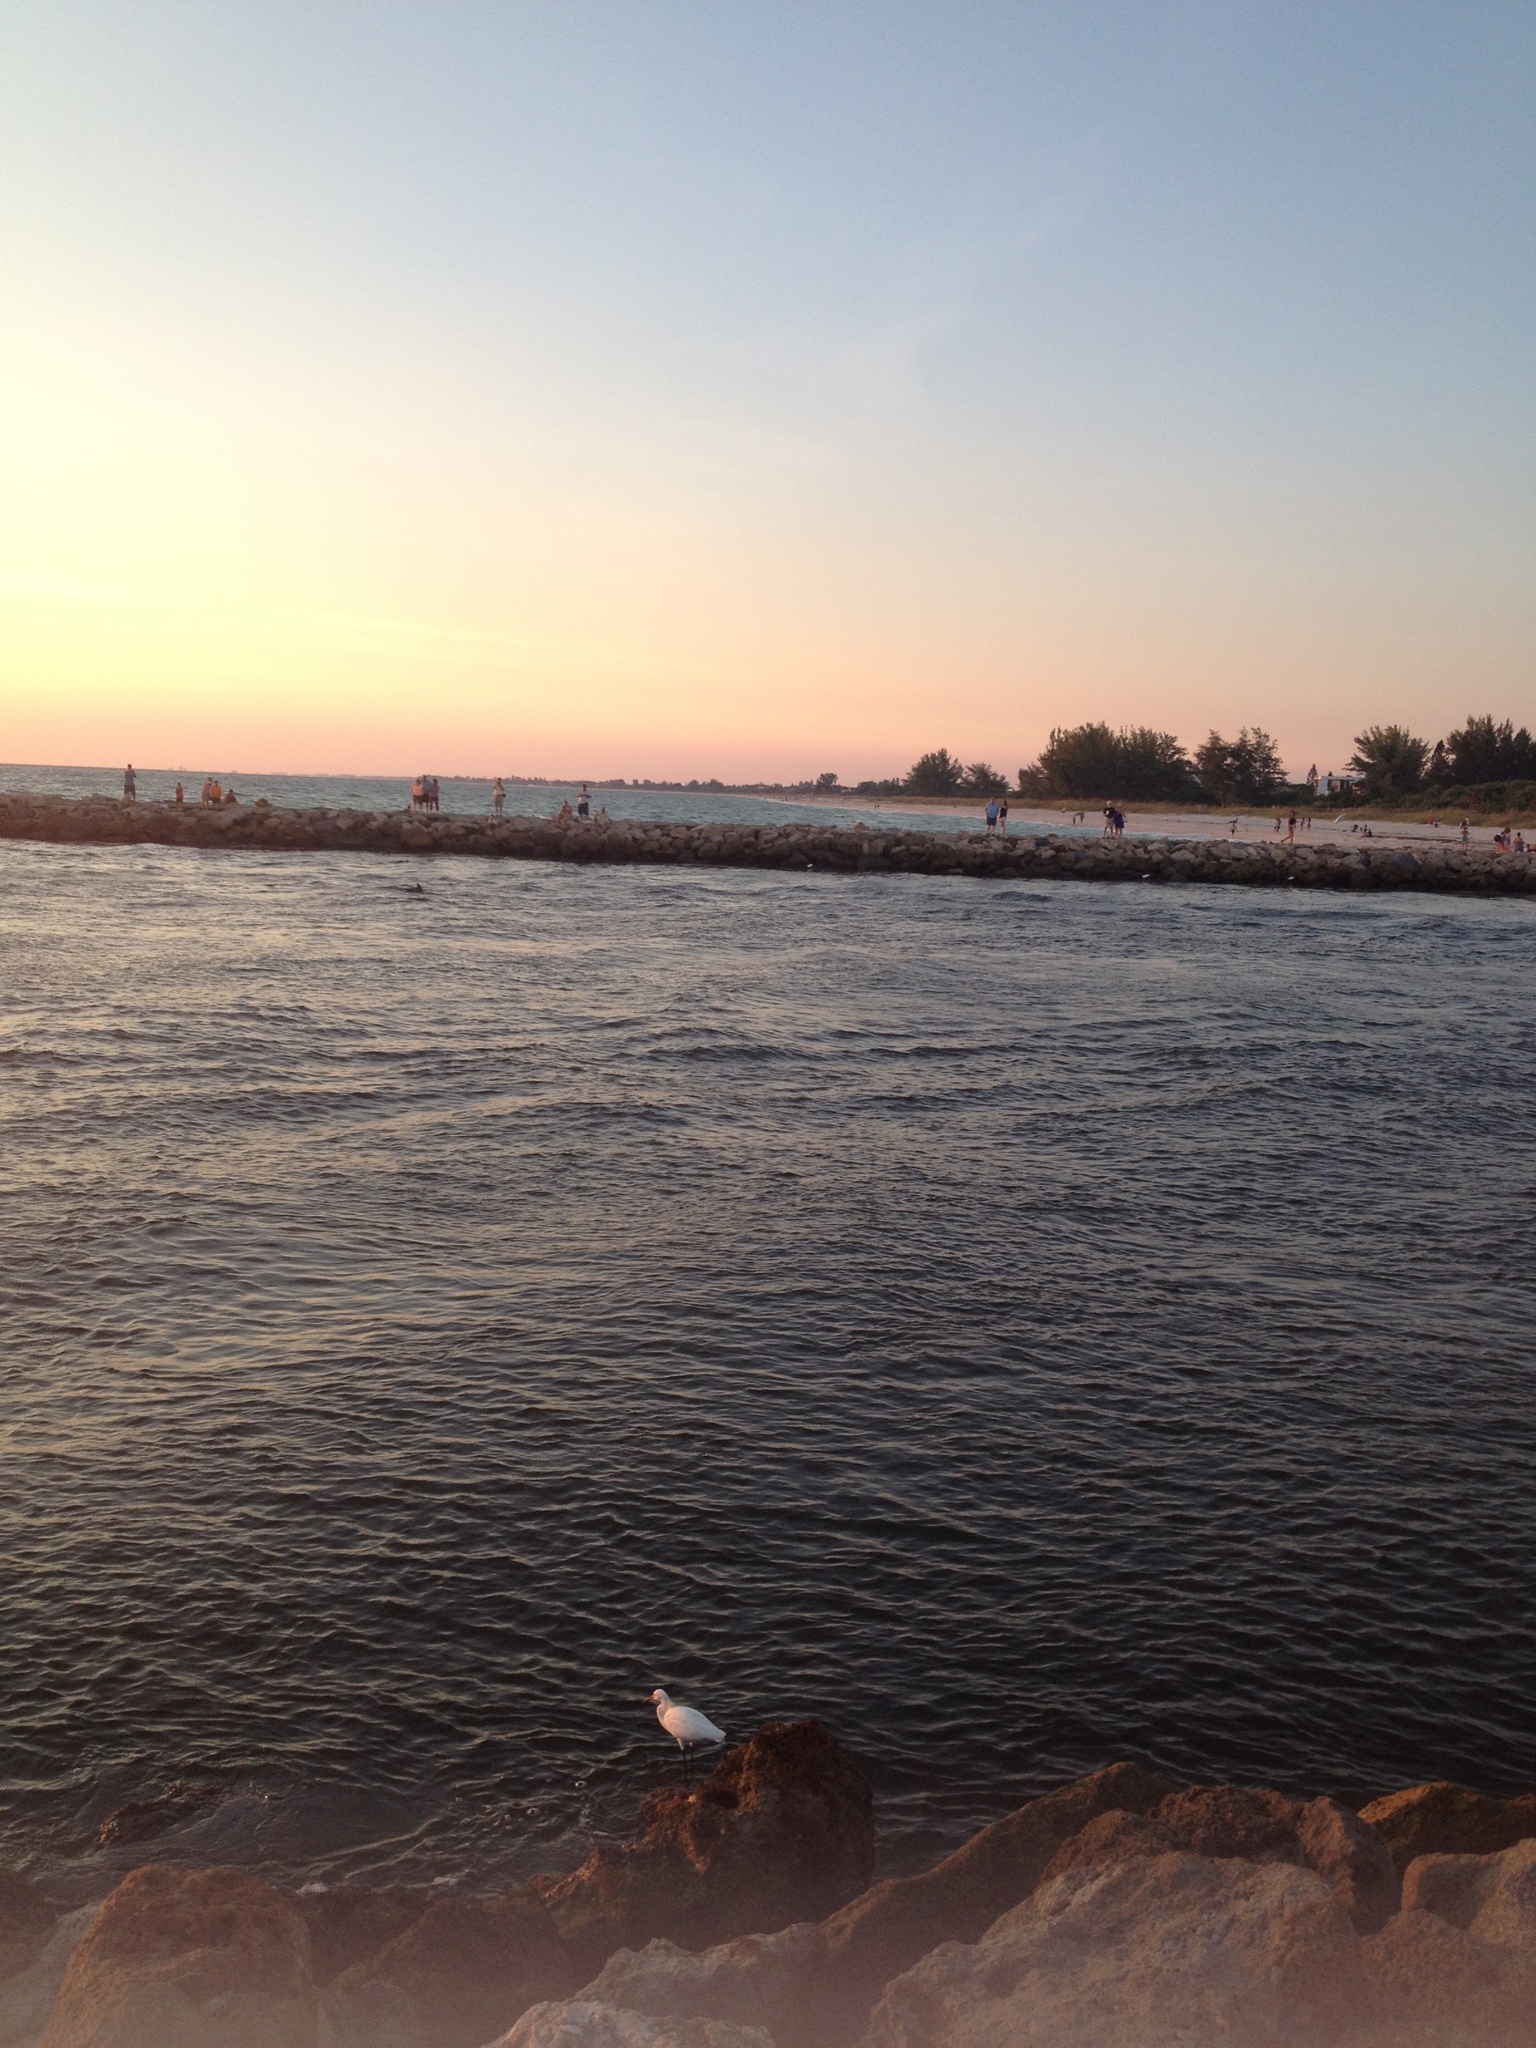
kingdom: Animalia
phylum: Chordata
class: Aves
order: Pelecaniformes
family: Ardeidae
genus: Egretta
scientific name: Egretta thula
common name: Snowy egret
